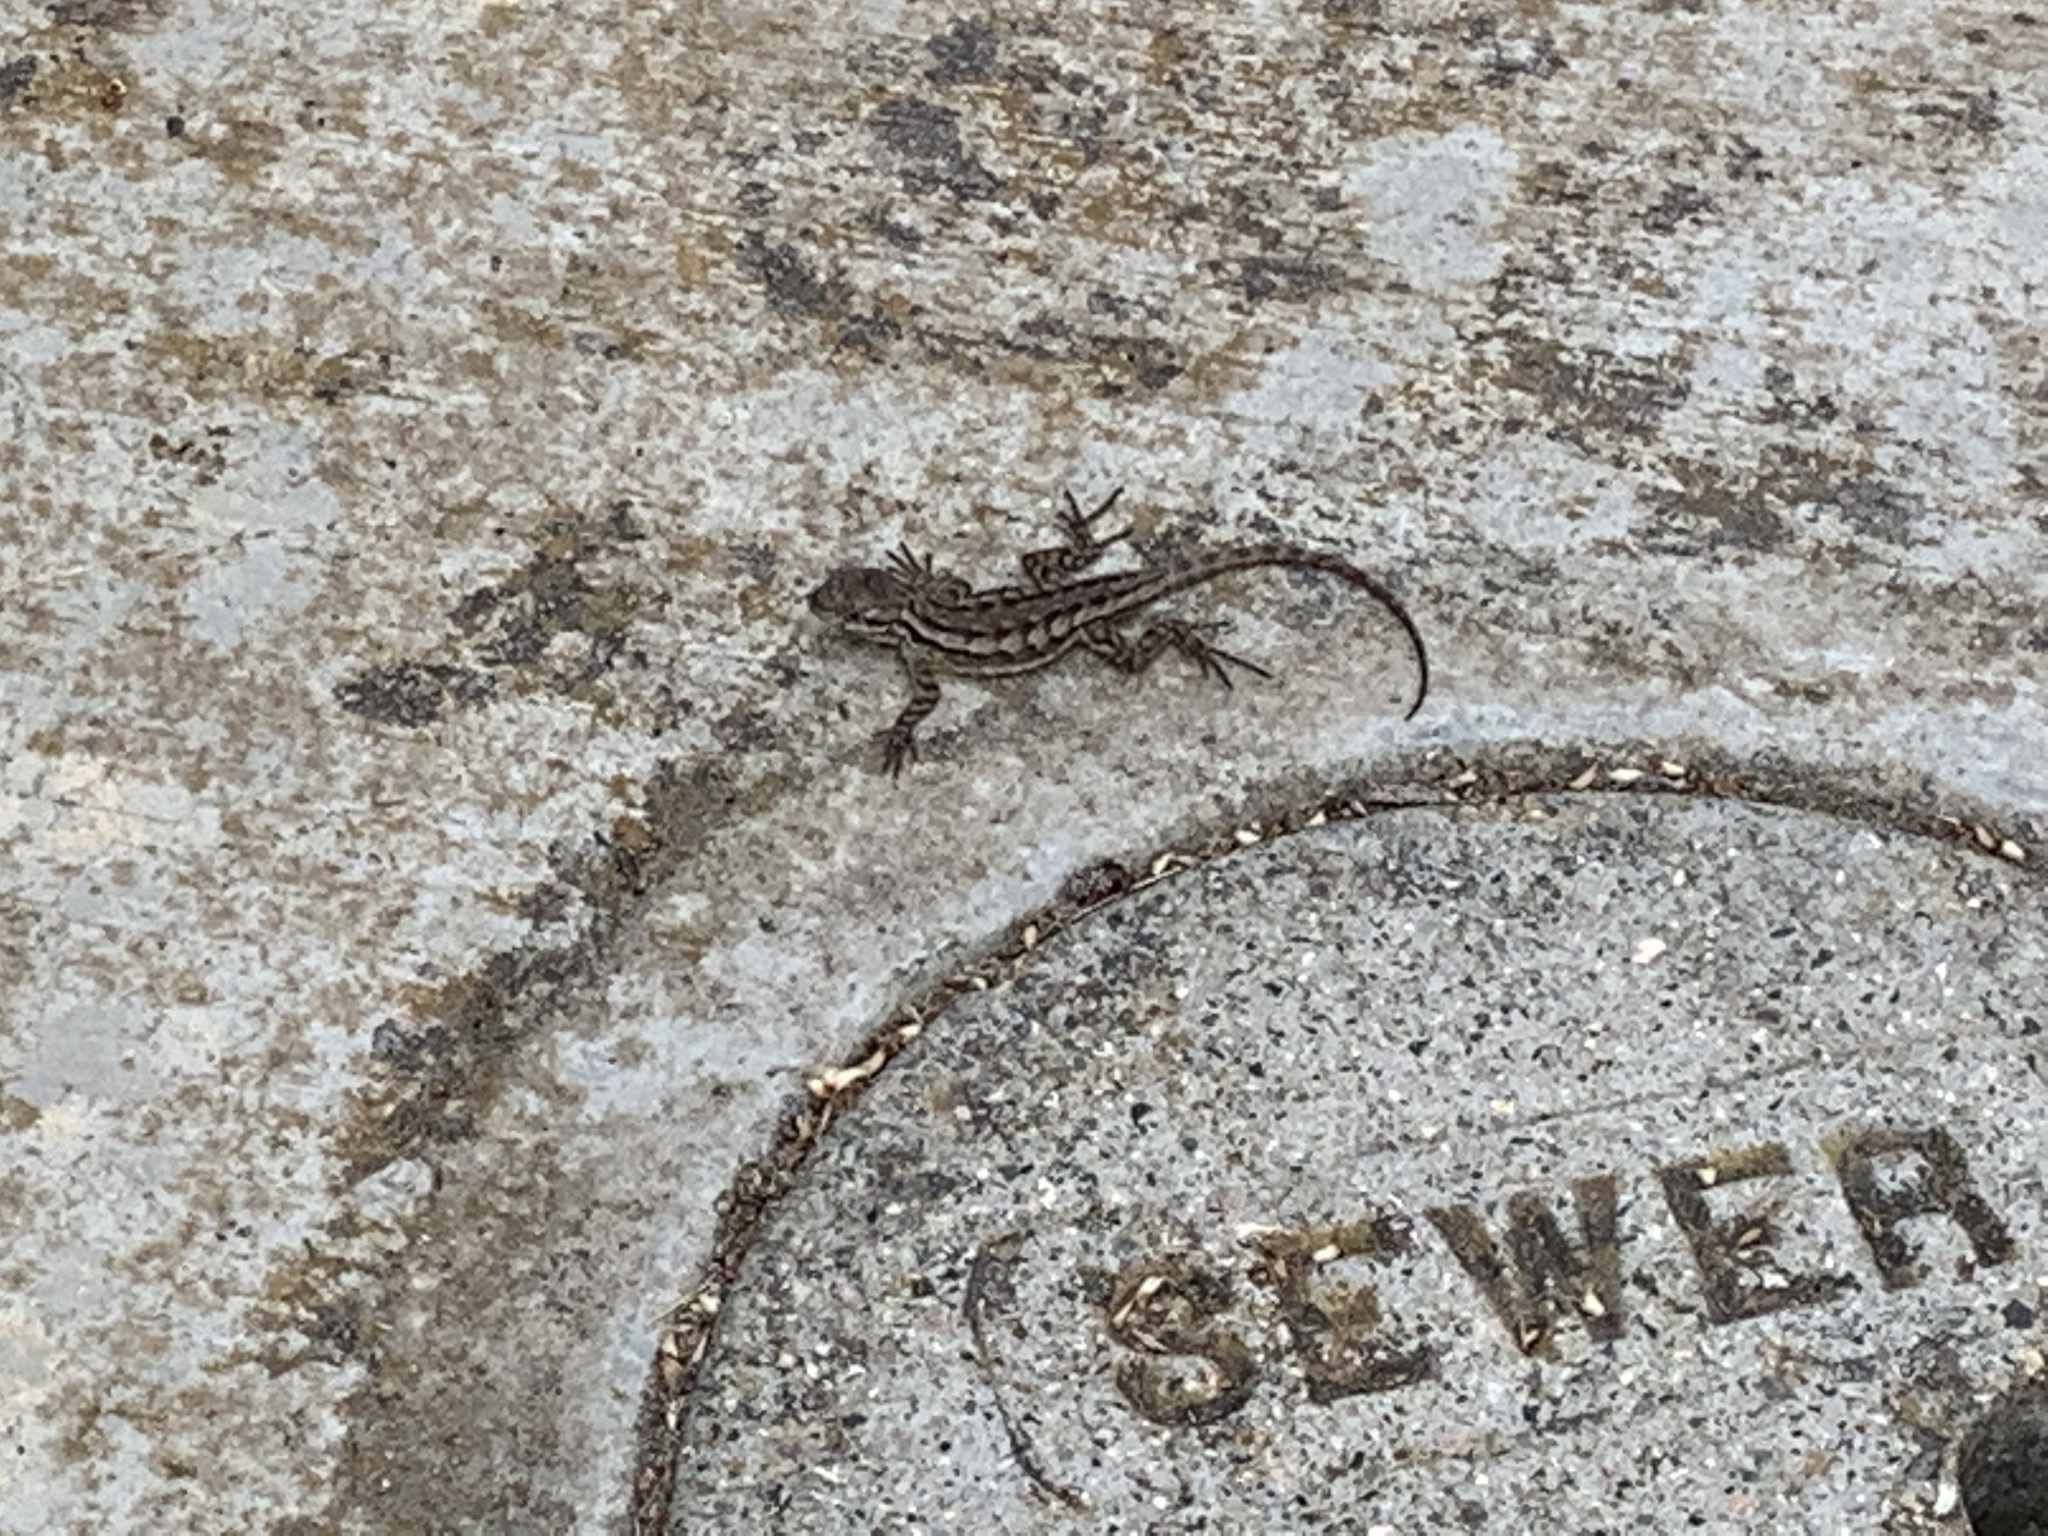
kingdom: Animalia
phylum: Chordata
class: Squamata
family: Phrynosomatidae
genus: Sceloporus
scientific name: Sceloporus occidentalis
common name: Western fence lizard
